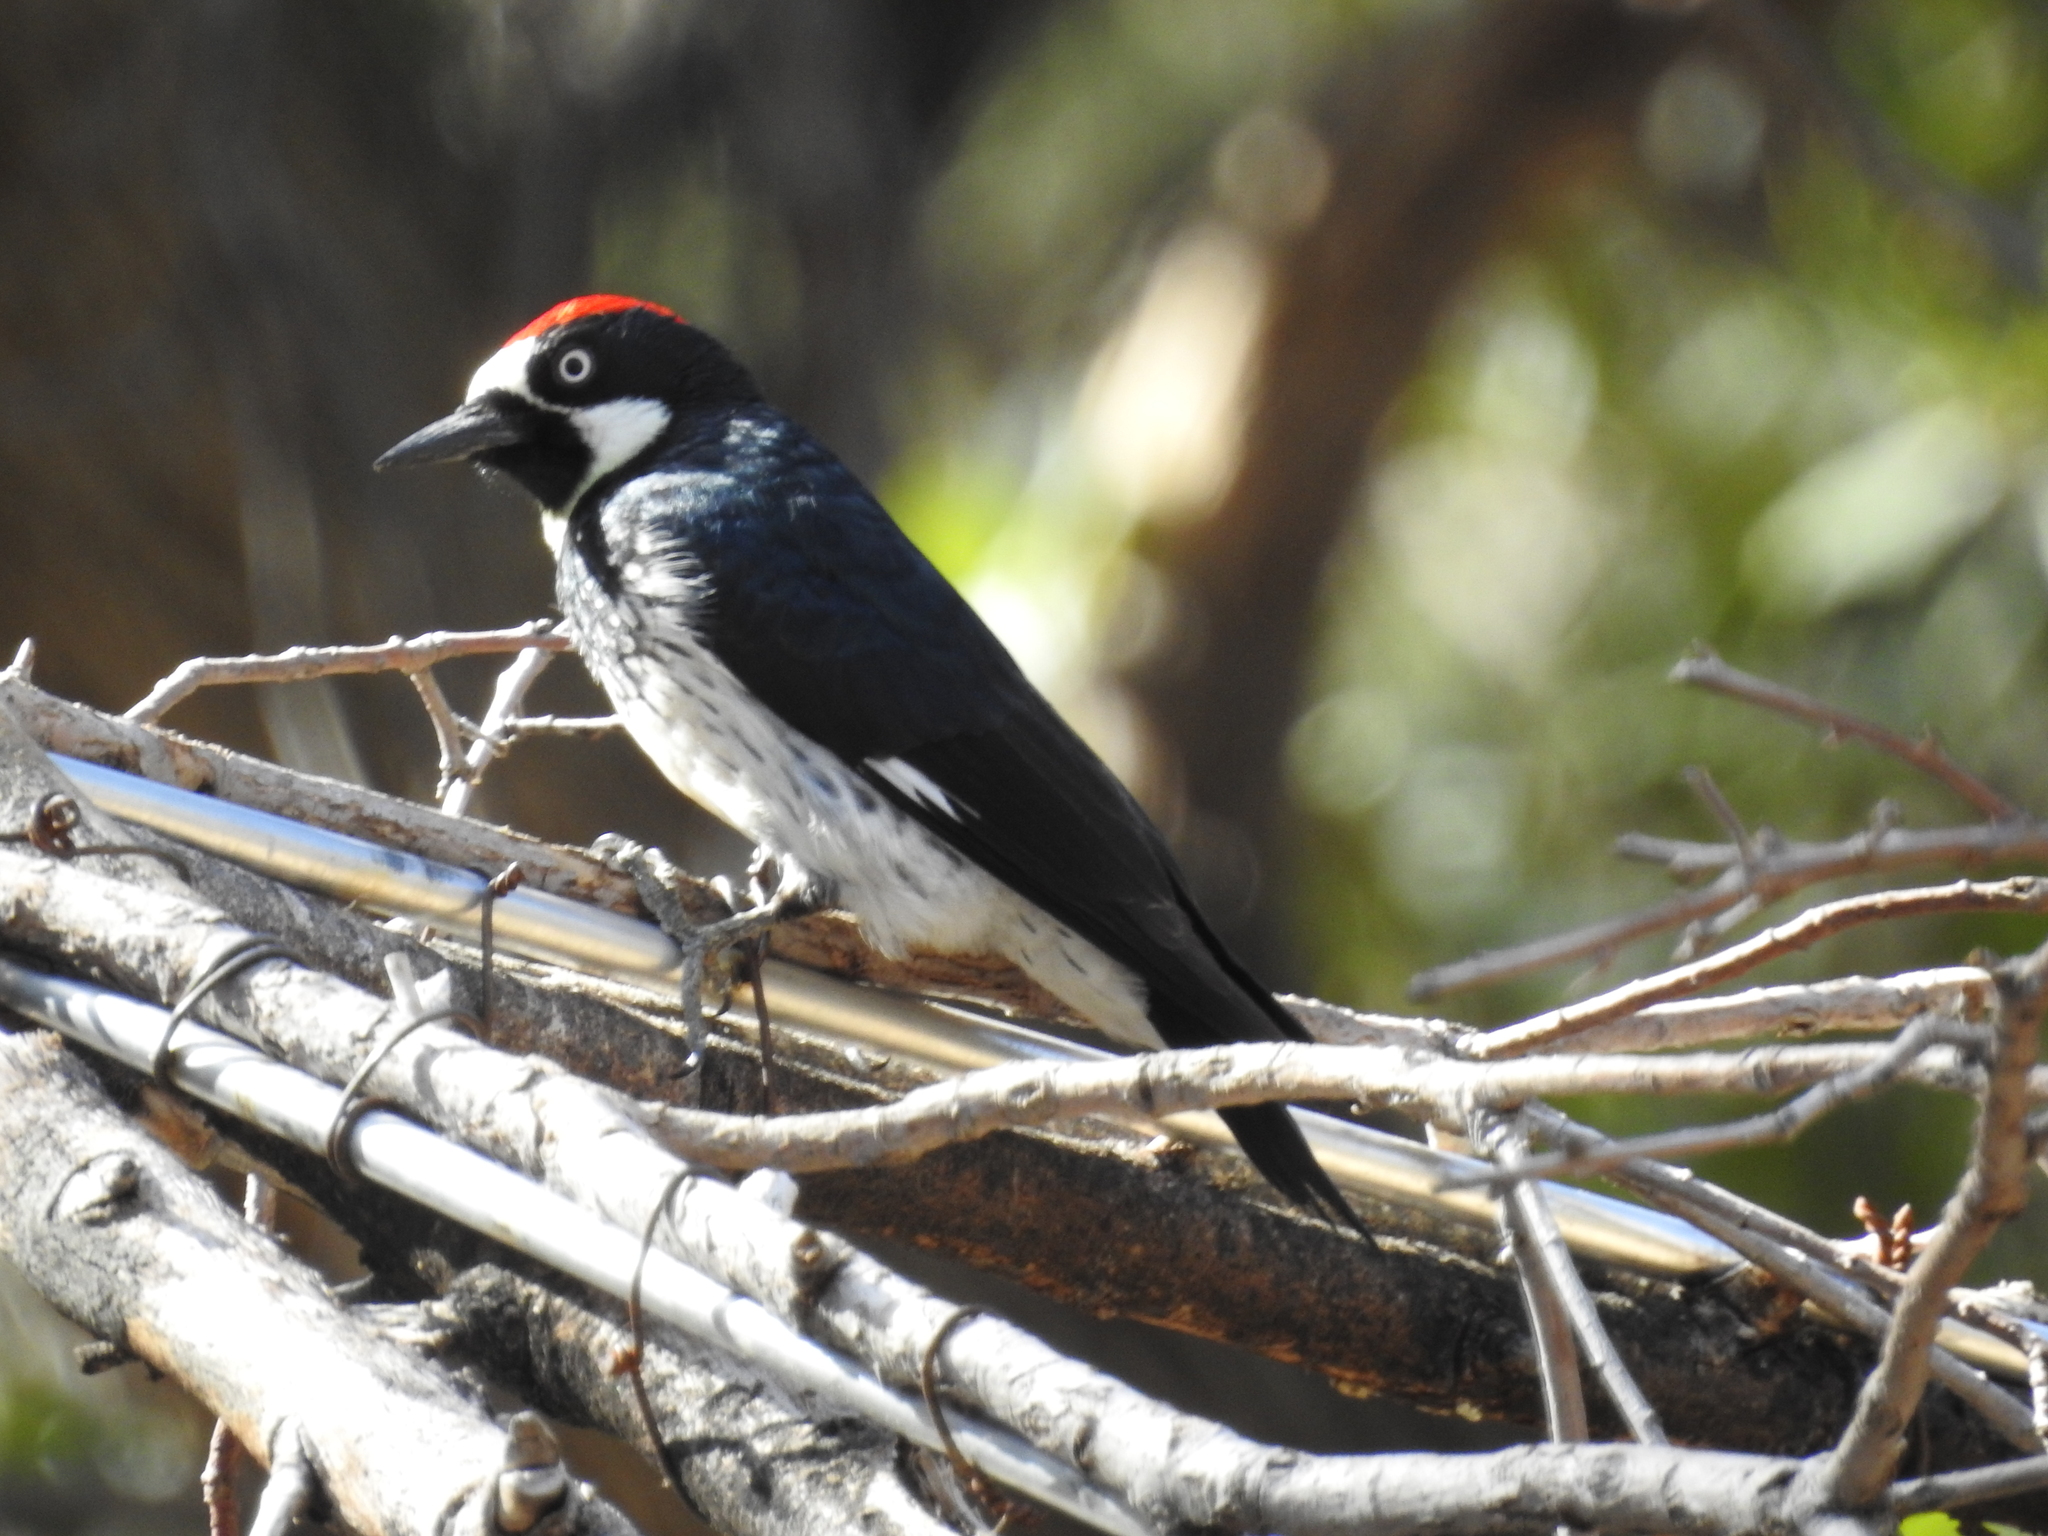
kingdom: Animalia
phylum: Chordata
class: Aves
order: Piciformes
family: Picidae
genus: Melanerpes
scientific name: Melanerpes formicivorus
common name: Acorn woodpecker
